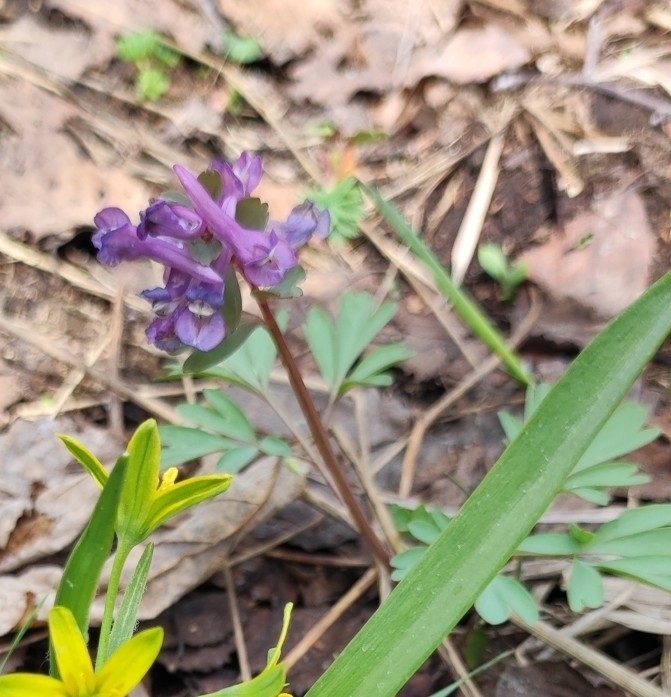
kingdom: Plantae
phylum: Tracheophyta
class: Magnoliopsida
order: Ranunculales
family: Papaveraceae
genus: Corydalis
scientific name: Corydalis solida
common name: Bird-in-a-bush
